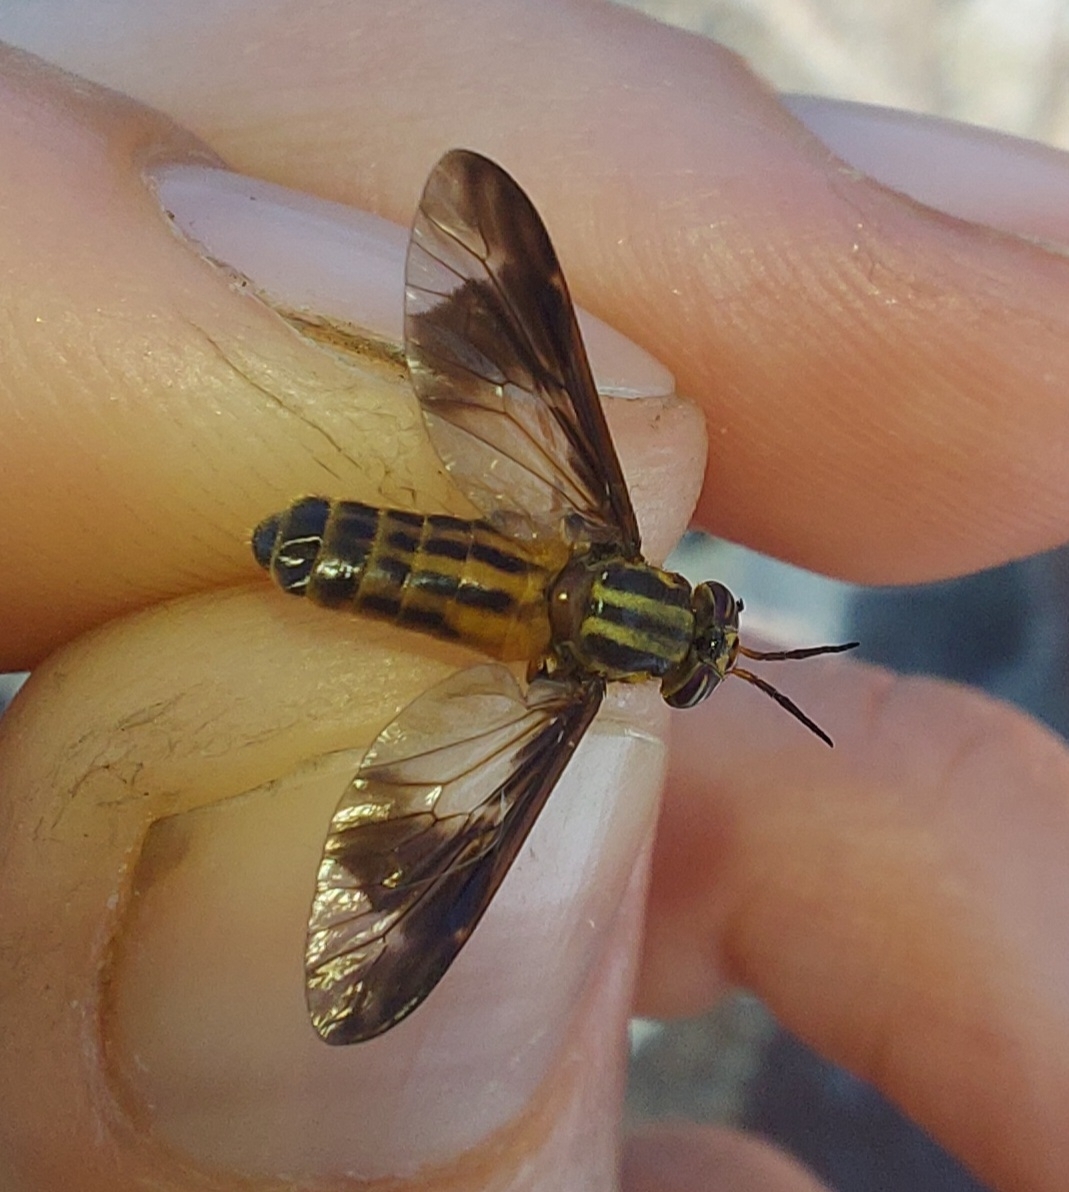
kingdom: Animalia
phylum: Arthropoda
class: Insecta
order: Diptera
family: Tabanidae
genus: Chrysops
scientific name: Chrysops vittatus
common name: Striped deer fly
